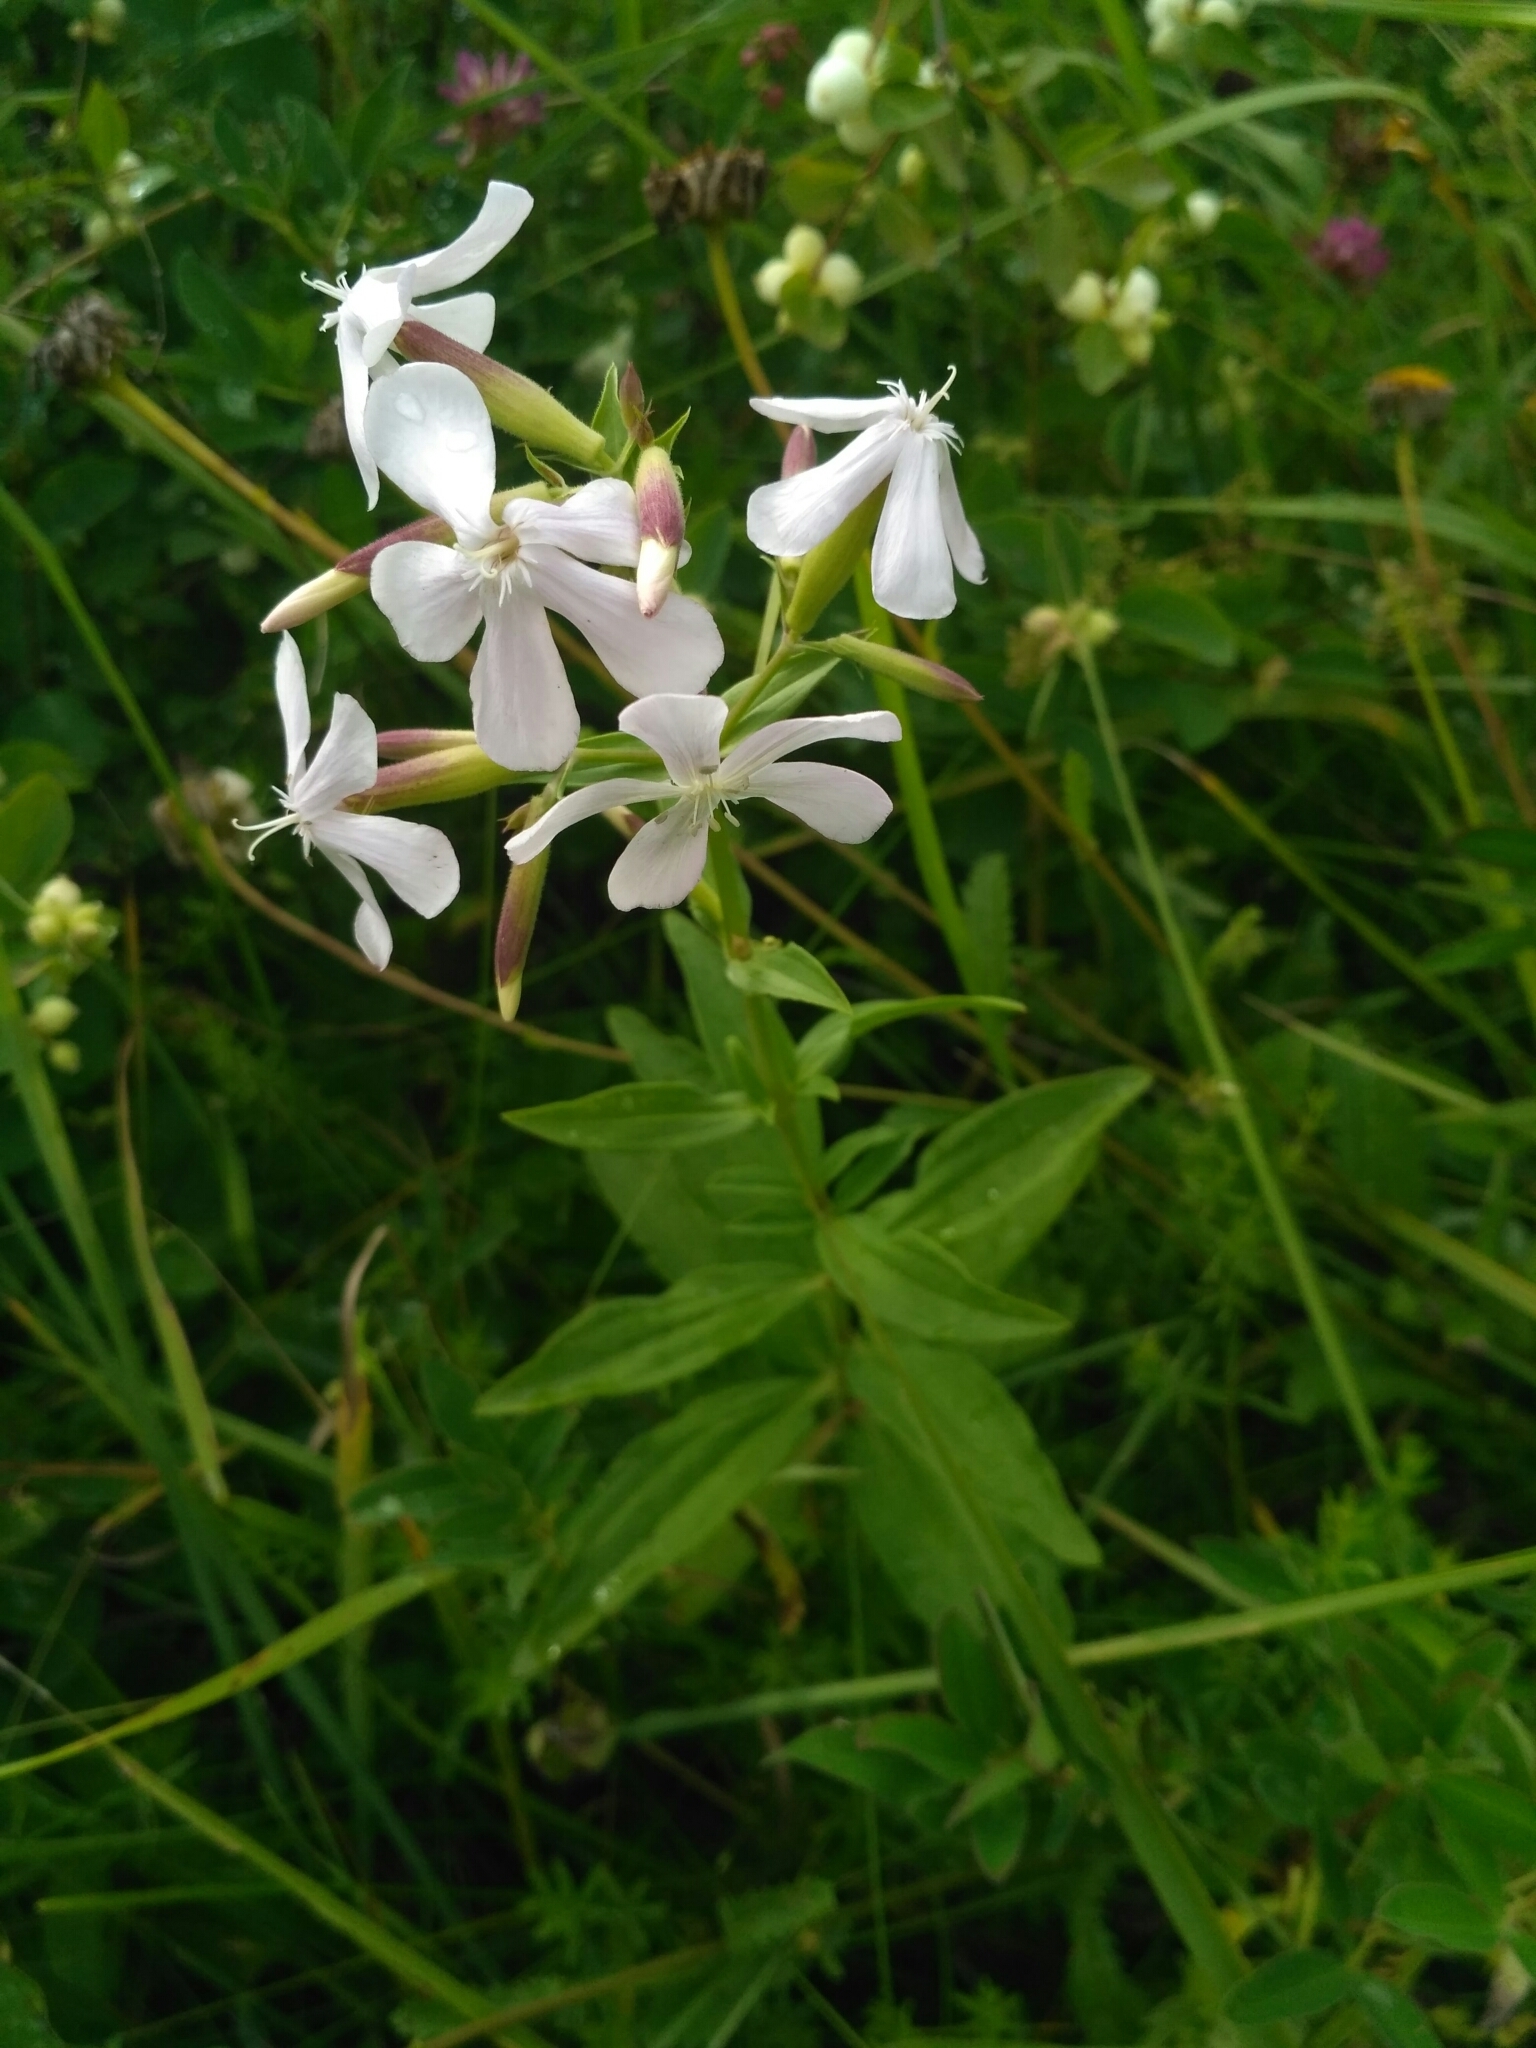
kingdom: Plantae
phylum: Tracheophyta
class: Magnoliopsida
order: Caryophyllales
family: Caryophyllaceae
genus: Saponaria
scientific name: Saponaria officinalis
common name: Soapwort
